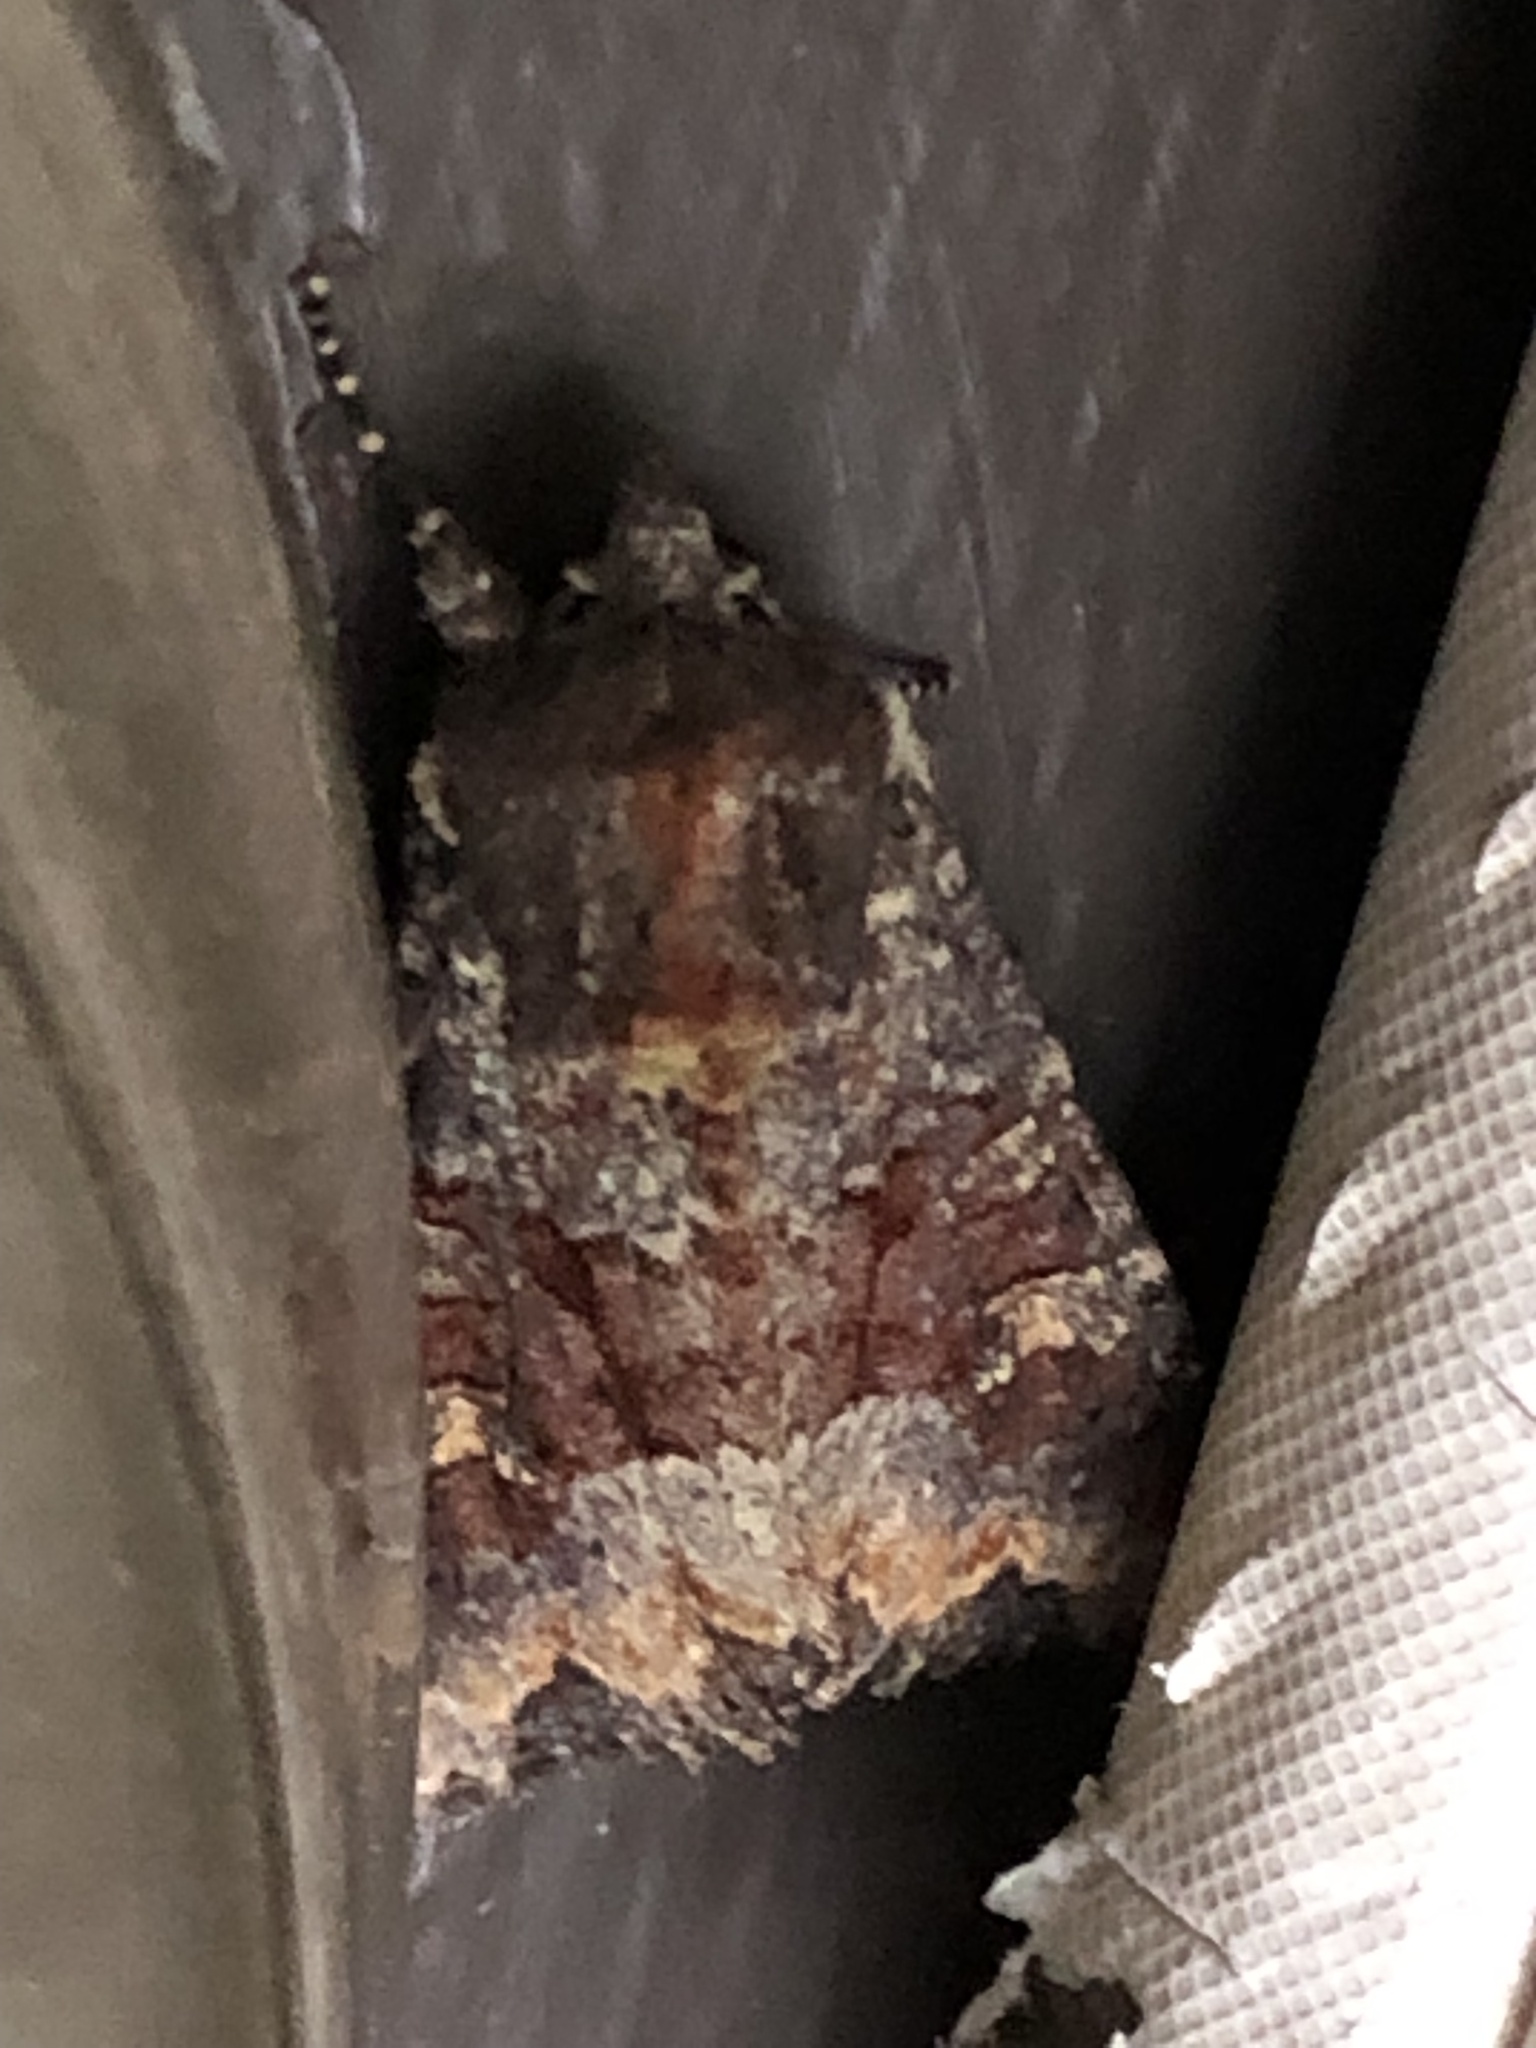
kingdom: Animalia
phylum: Arthropoda
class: Insecta
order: Lepidoptera
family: Noctuidae
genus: Apamea
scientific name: Apamea amputatrix
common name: Yellow-headed cutworm moth
